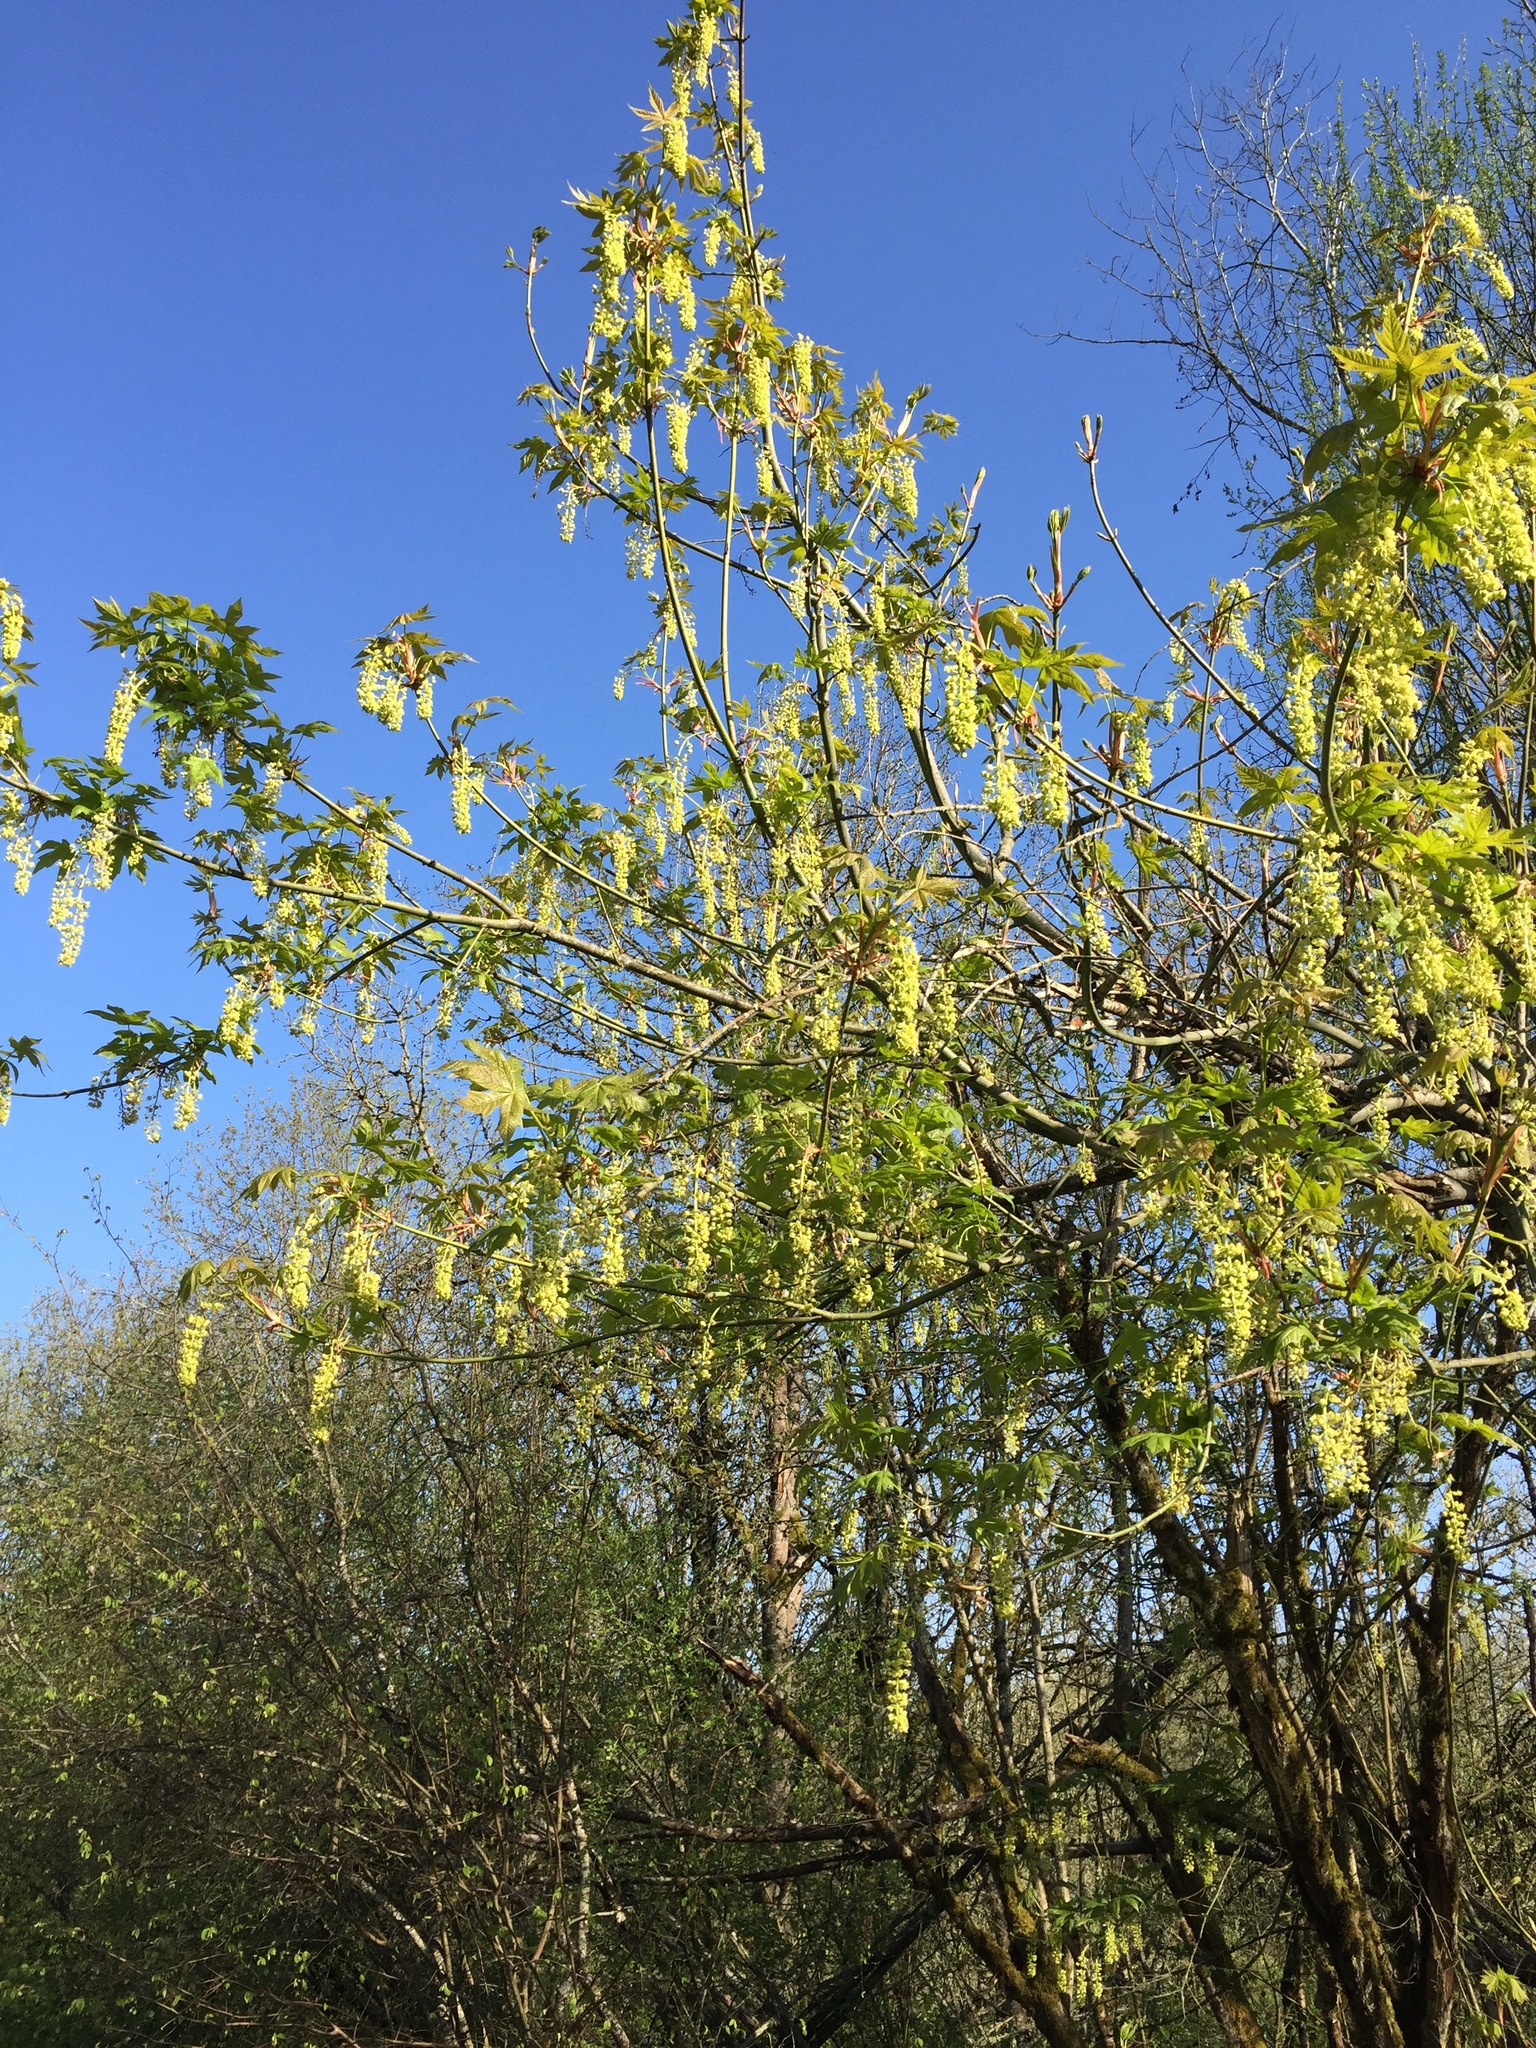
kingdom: Plantae
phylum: Tracheophyta
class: Magnoliopsida
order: Sapindales
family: Sapindaceae
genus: Acer
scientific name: Acer macrophyllum
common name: Oregon maple
